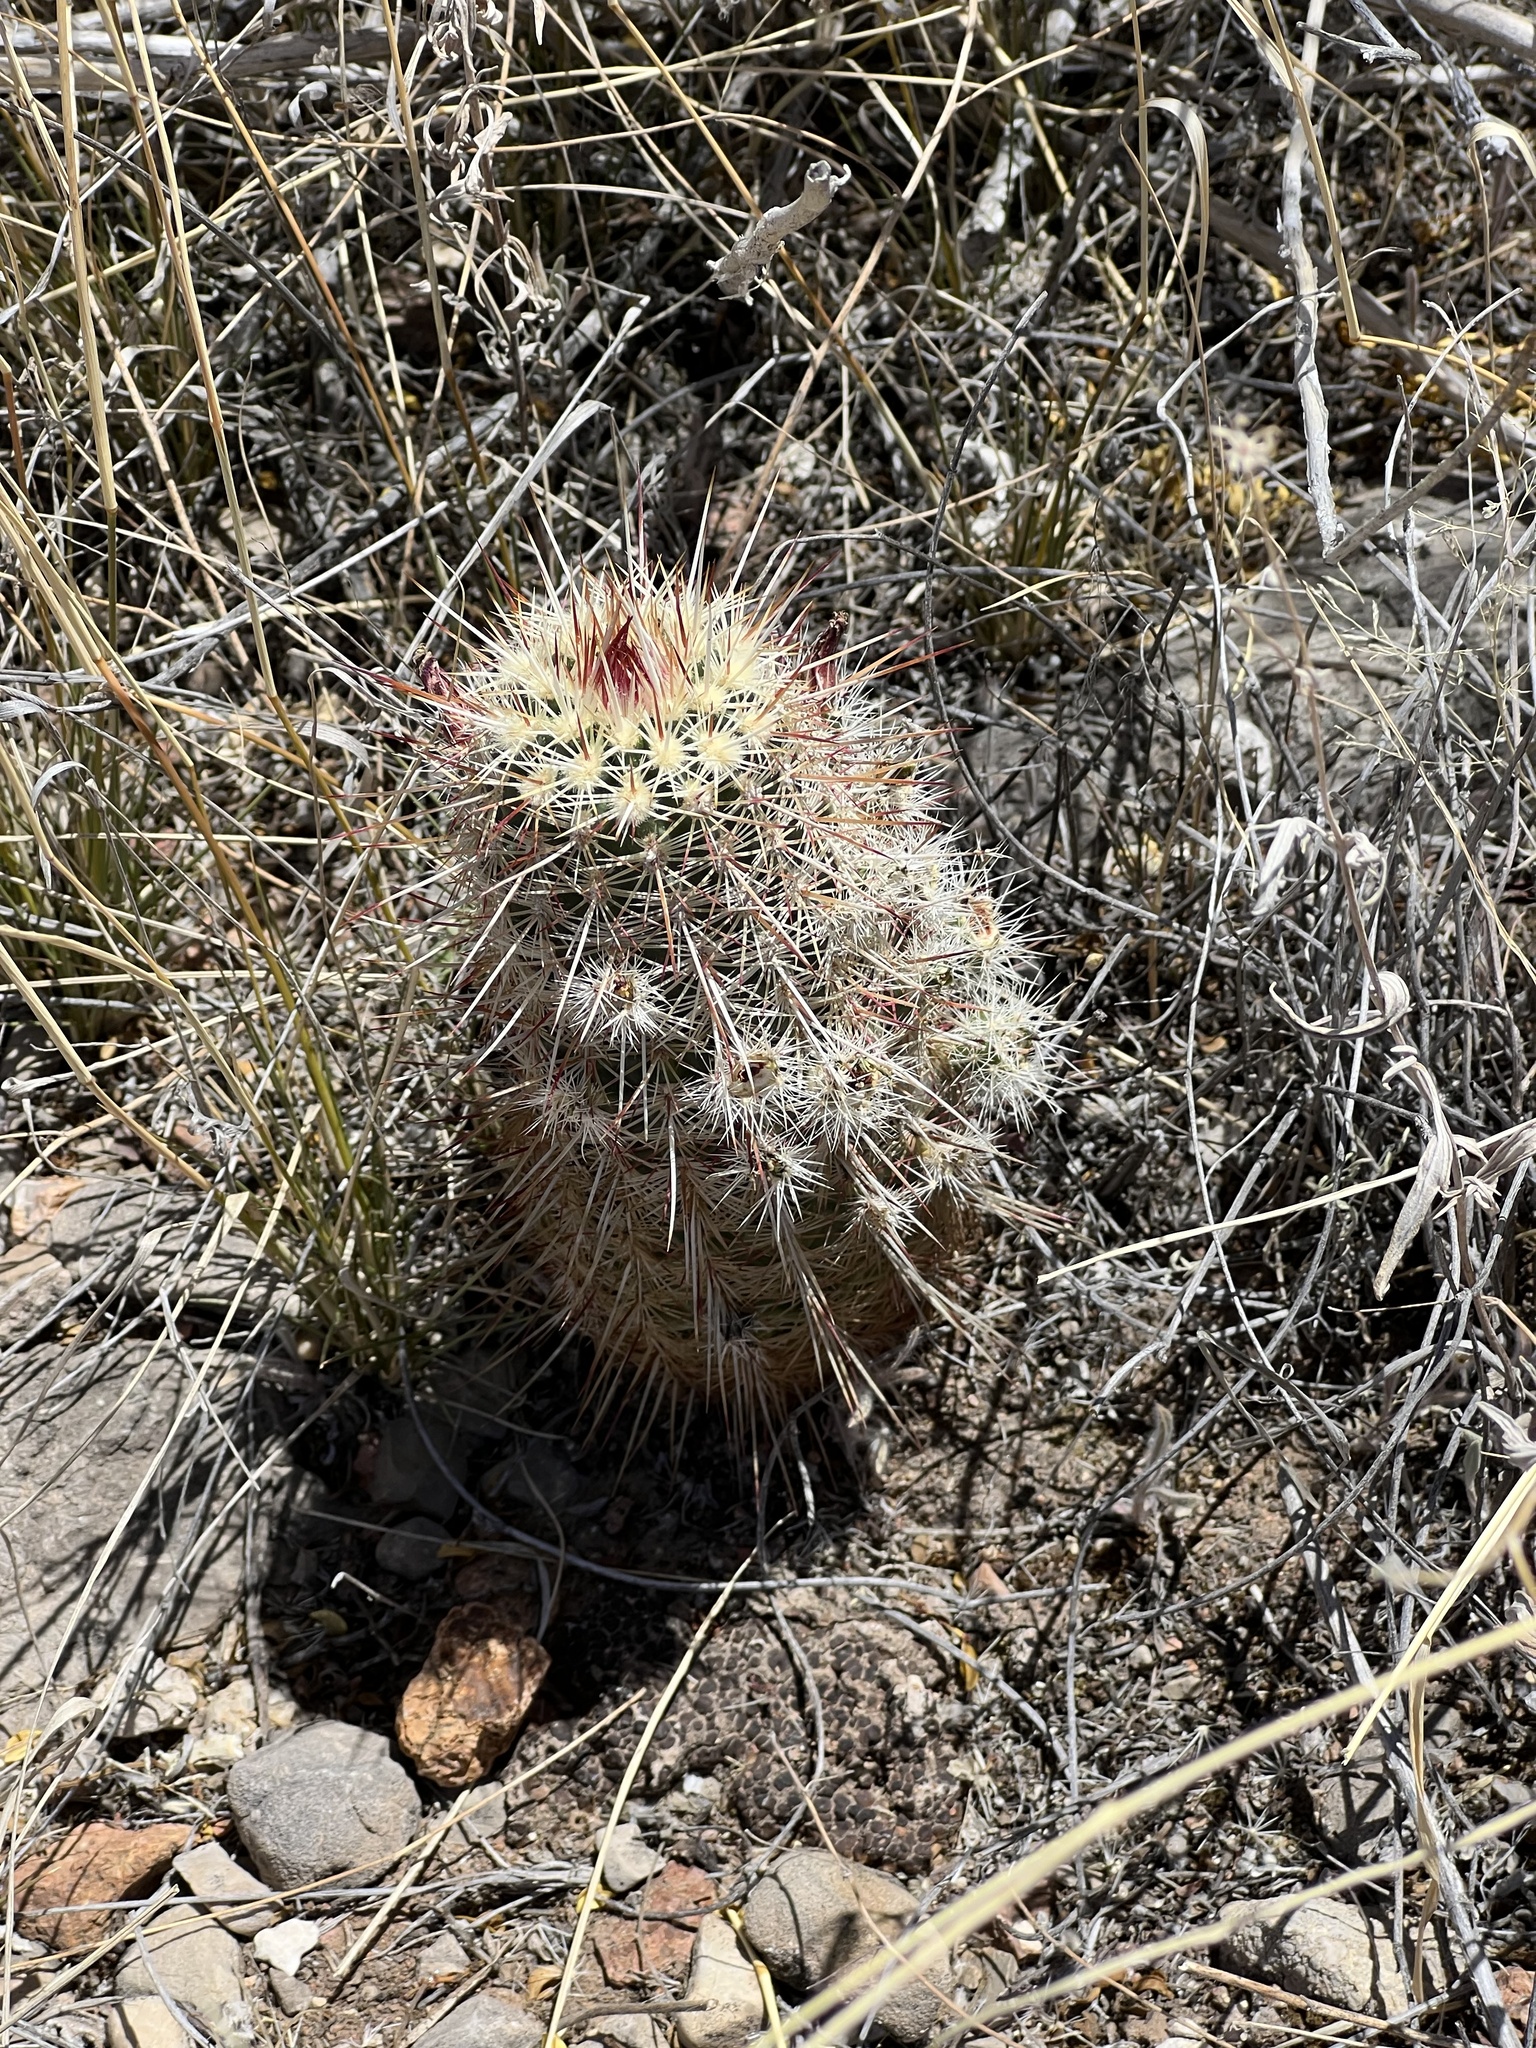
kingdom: Plantae
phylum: Tracheophyta
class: Magnoliopsida
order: Caryophyllales
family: Cactaceae
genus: Echinocereus
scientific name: Echinocereus viridiflorus
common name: Nylon hedgehog cactus
